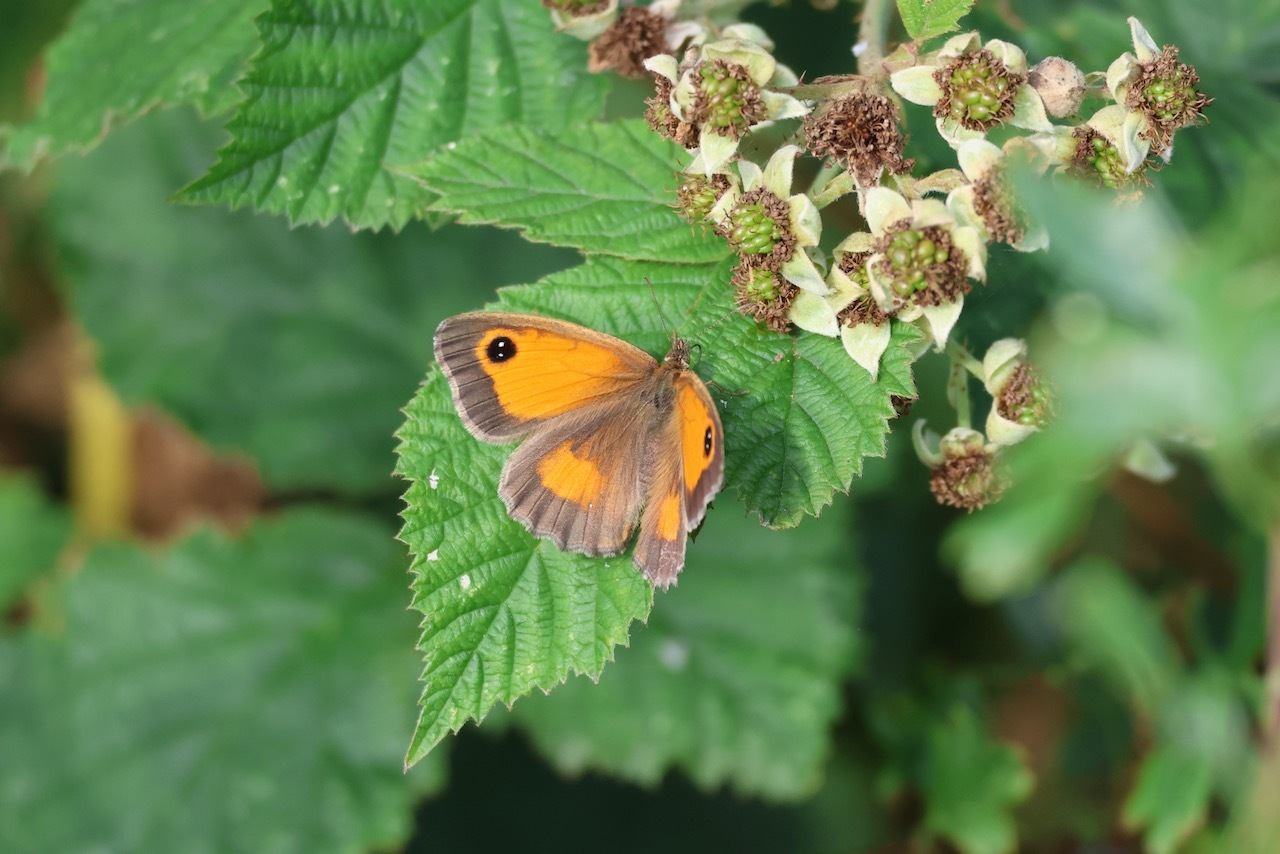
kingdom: Animalia
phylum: Arthropoda
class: Insecta
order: Lepidoptera
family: Nymphalidae
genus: Pyronia
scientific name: Pyronia tithonus
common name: Gatekeeper
